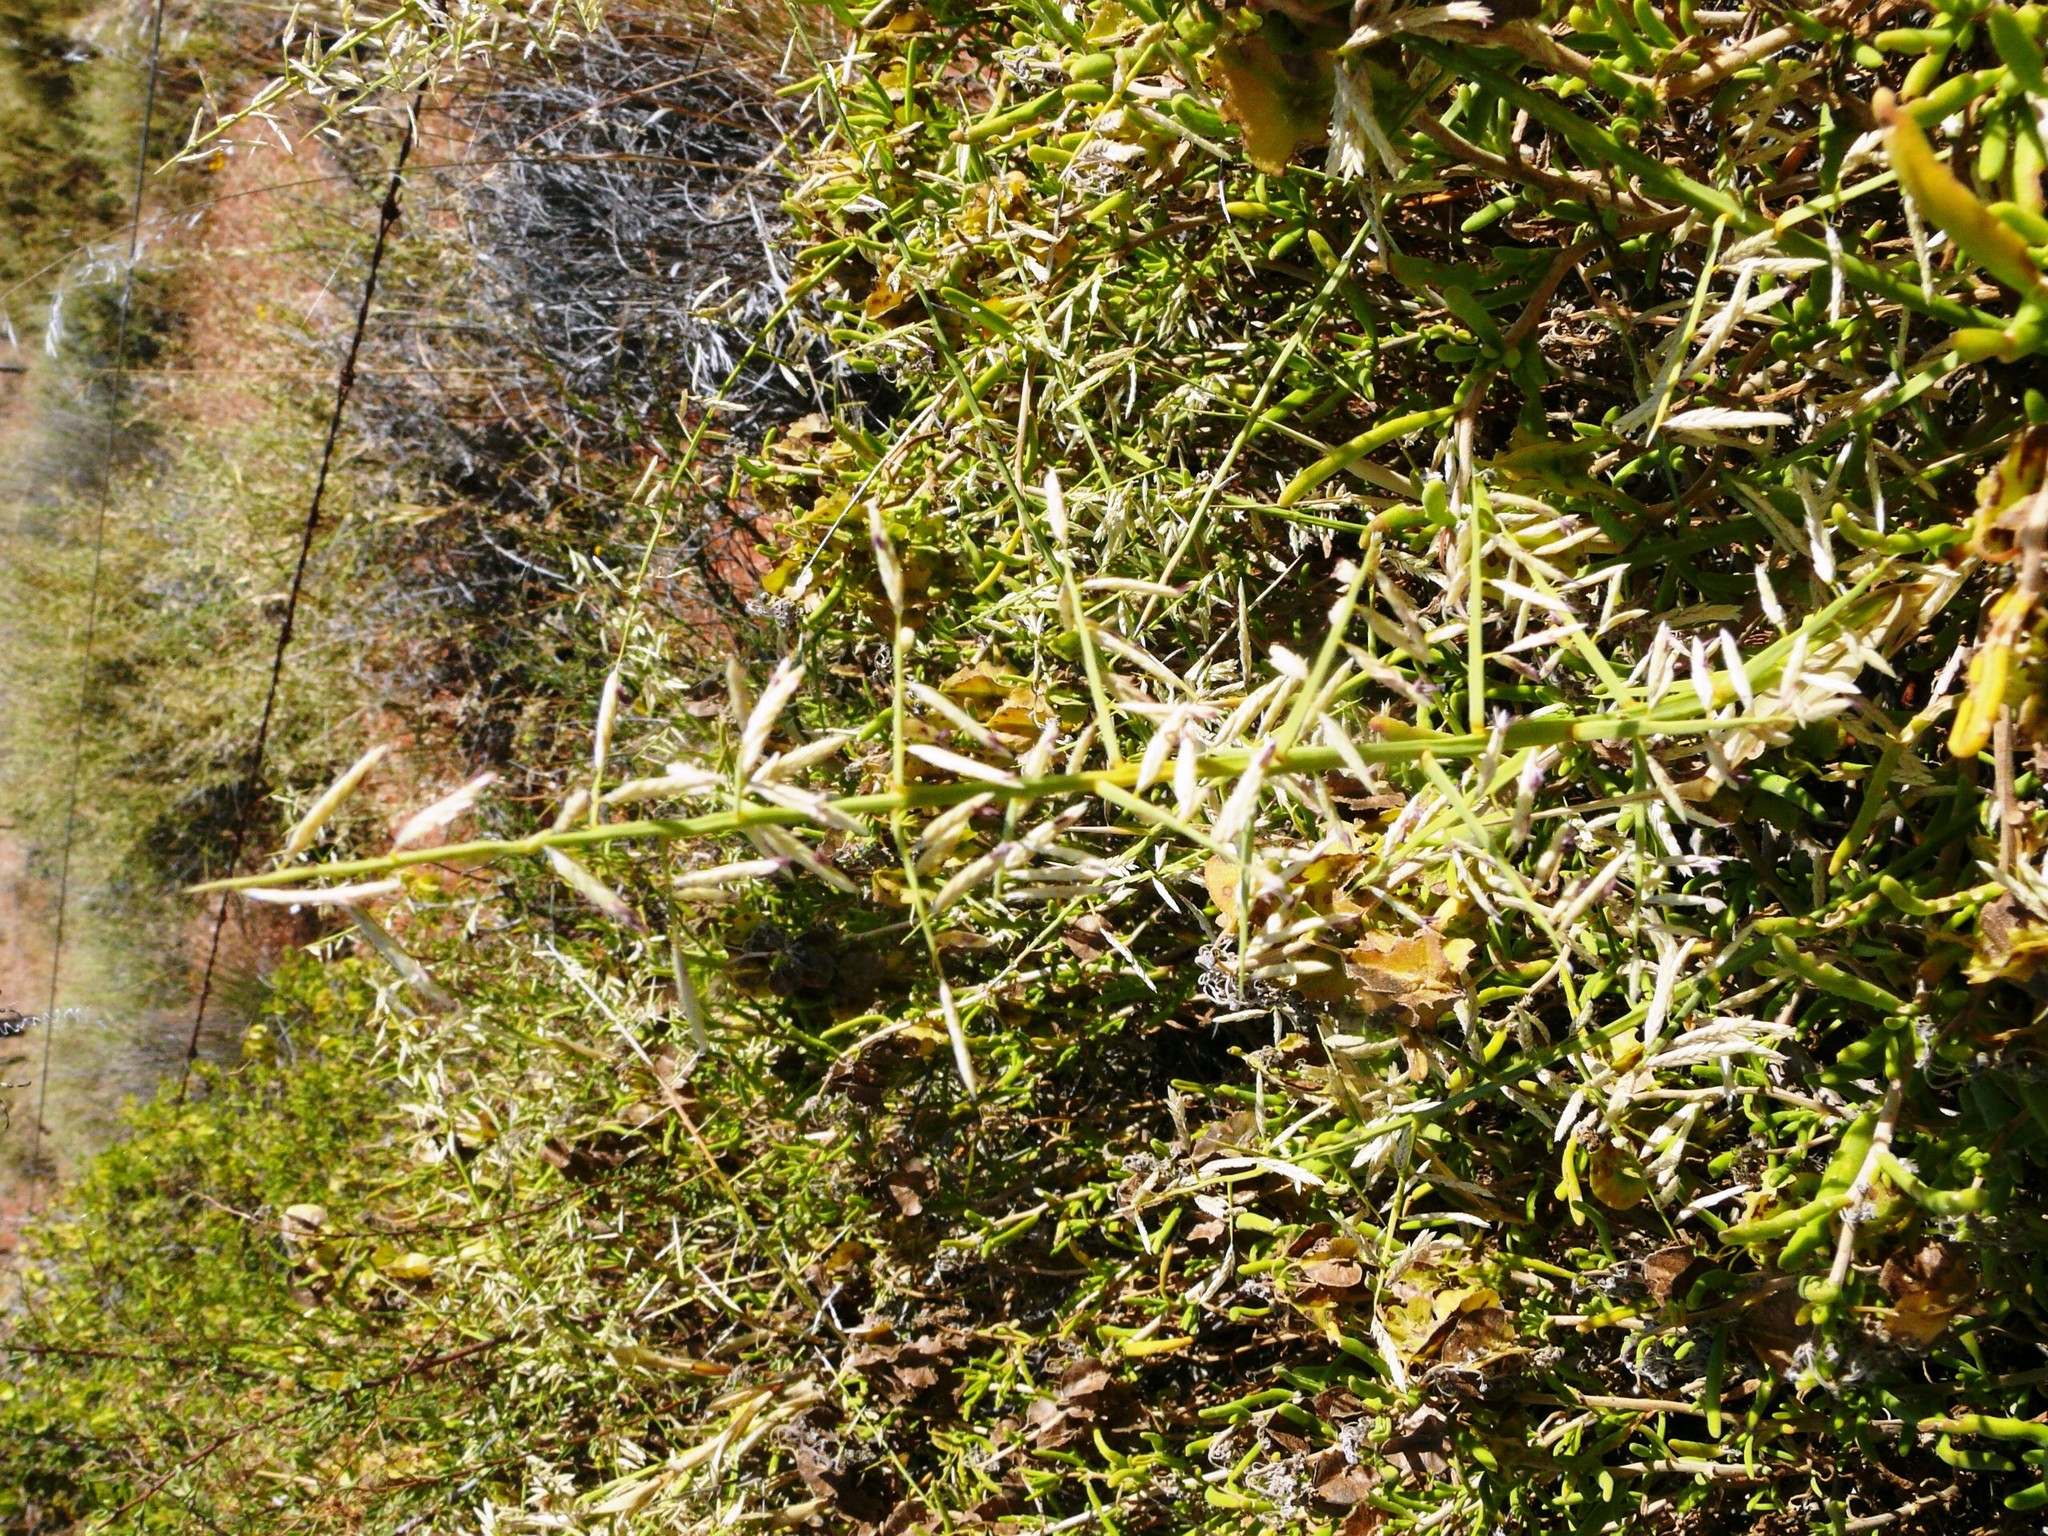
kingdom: Plantae
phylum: Tracheophyta
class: Liliopsida
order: Poales
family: Poaceae
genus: Cladoraphis
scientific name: Cladoraphis spinosa
